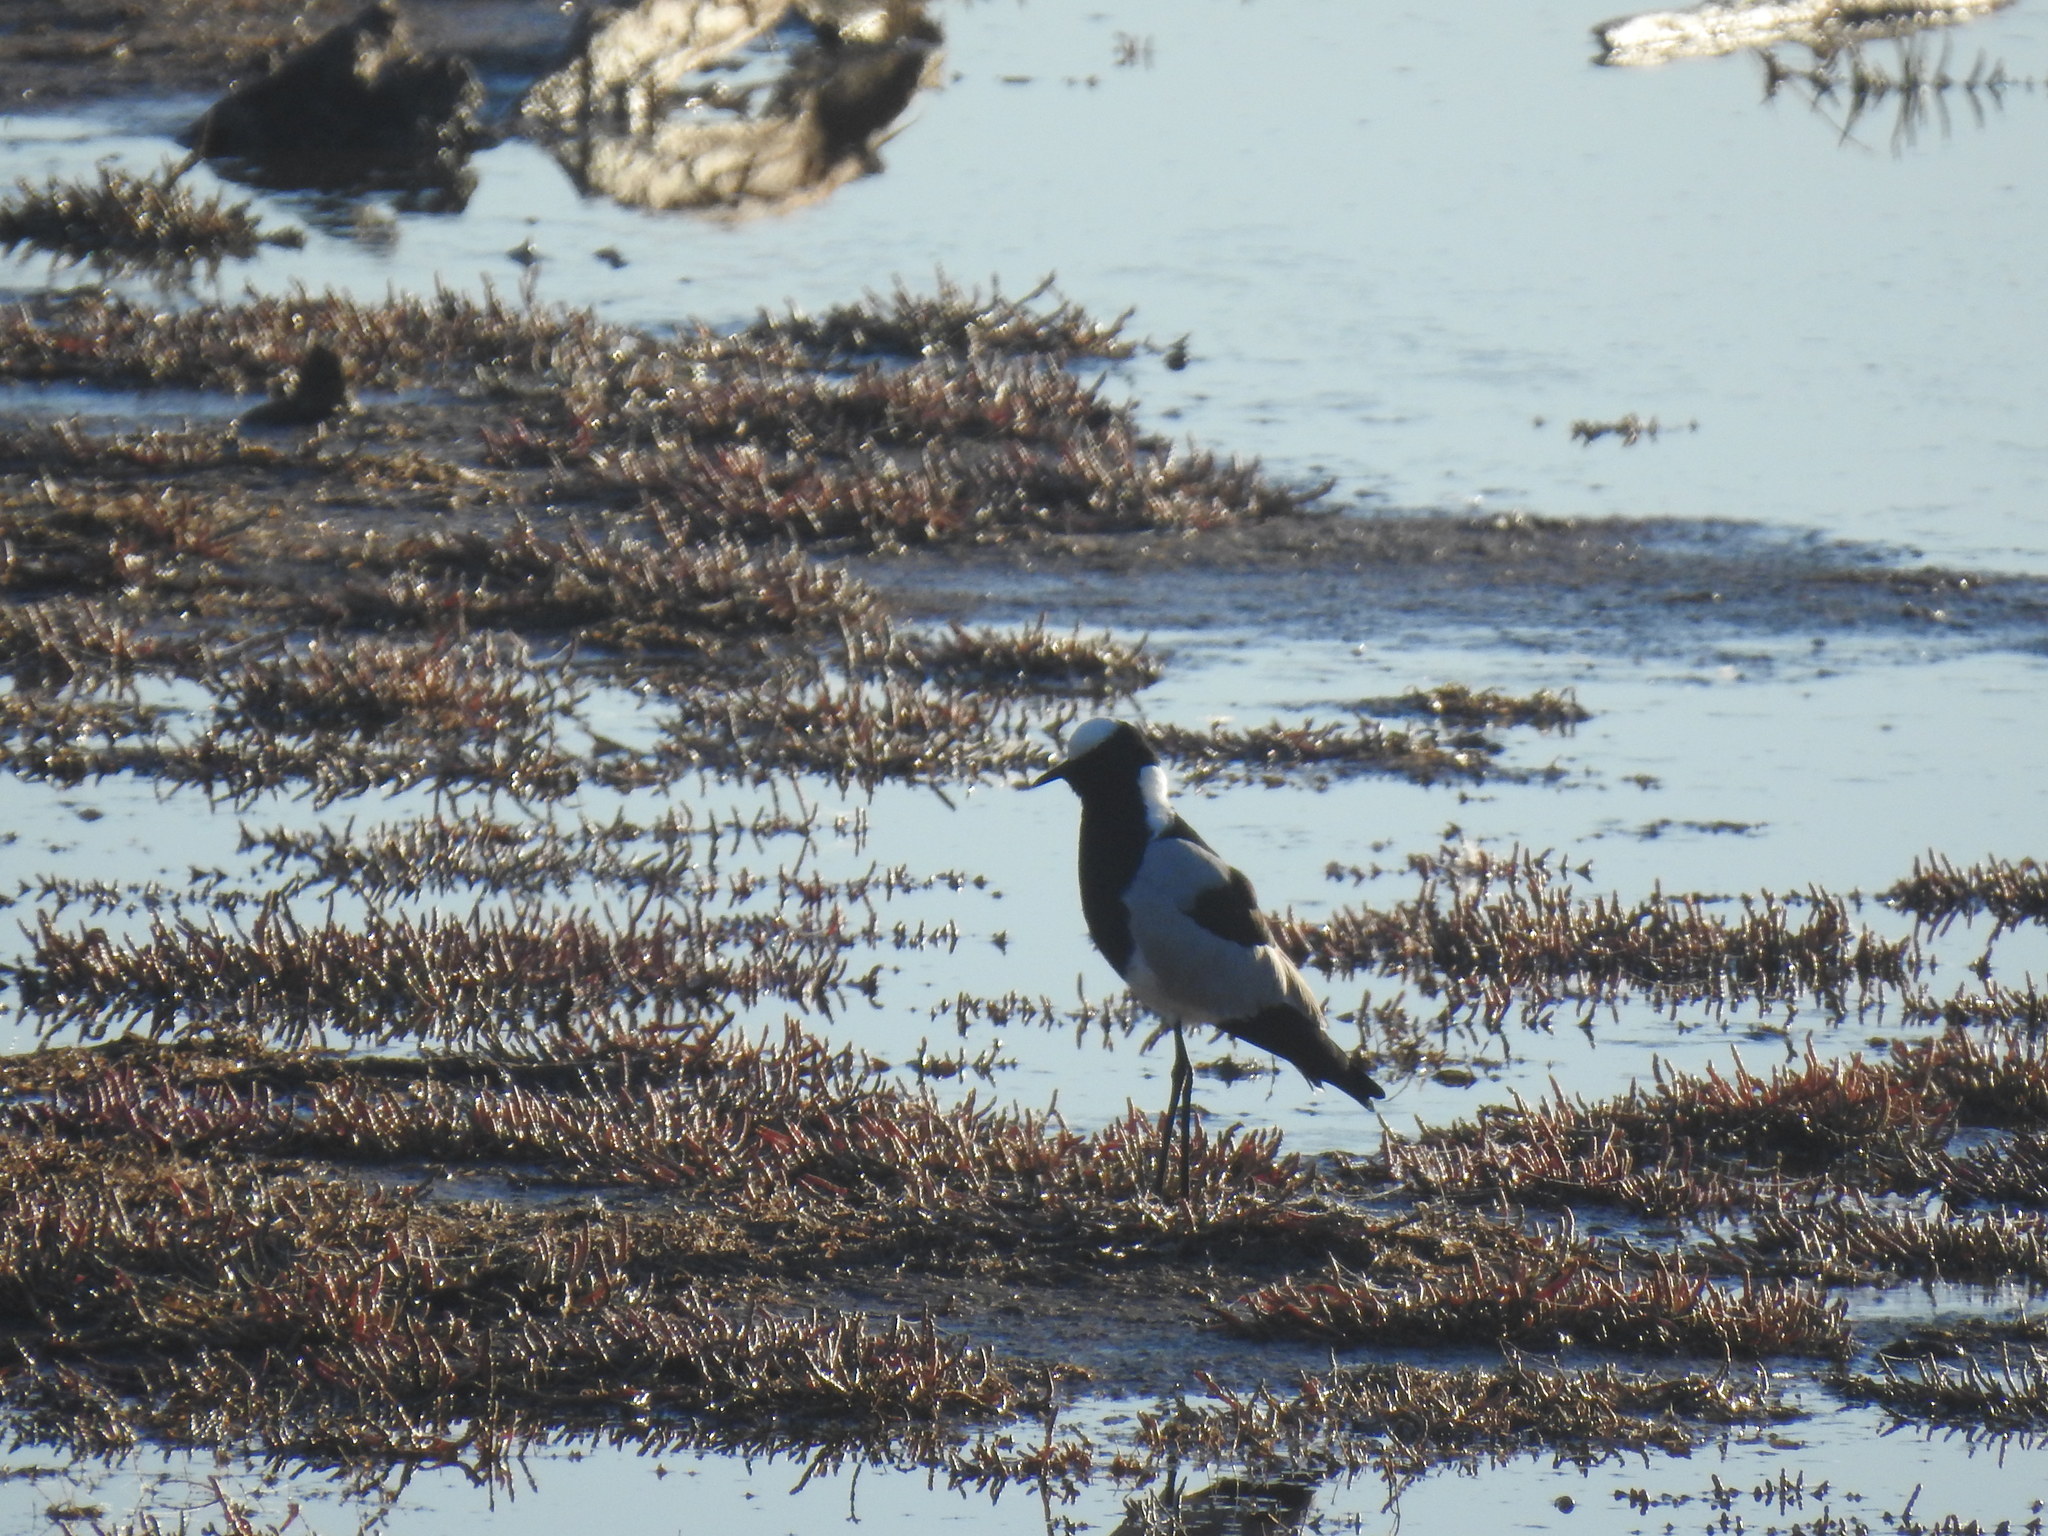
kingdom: Animalia
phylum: Chordata
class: Aves
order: Charadriiformes
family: Charadriidae
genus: Vanellus
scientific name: Vanellus armatus
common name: Blacksmith lapwing
